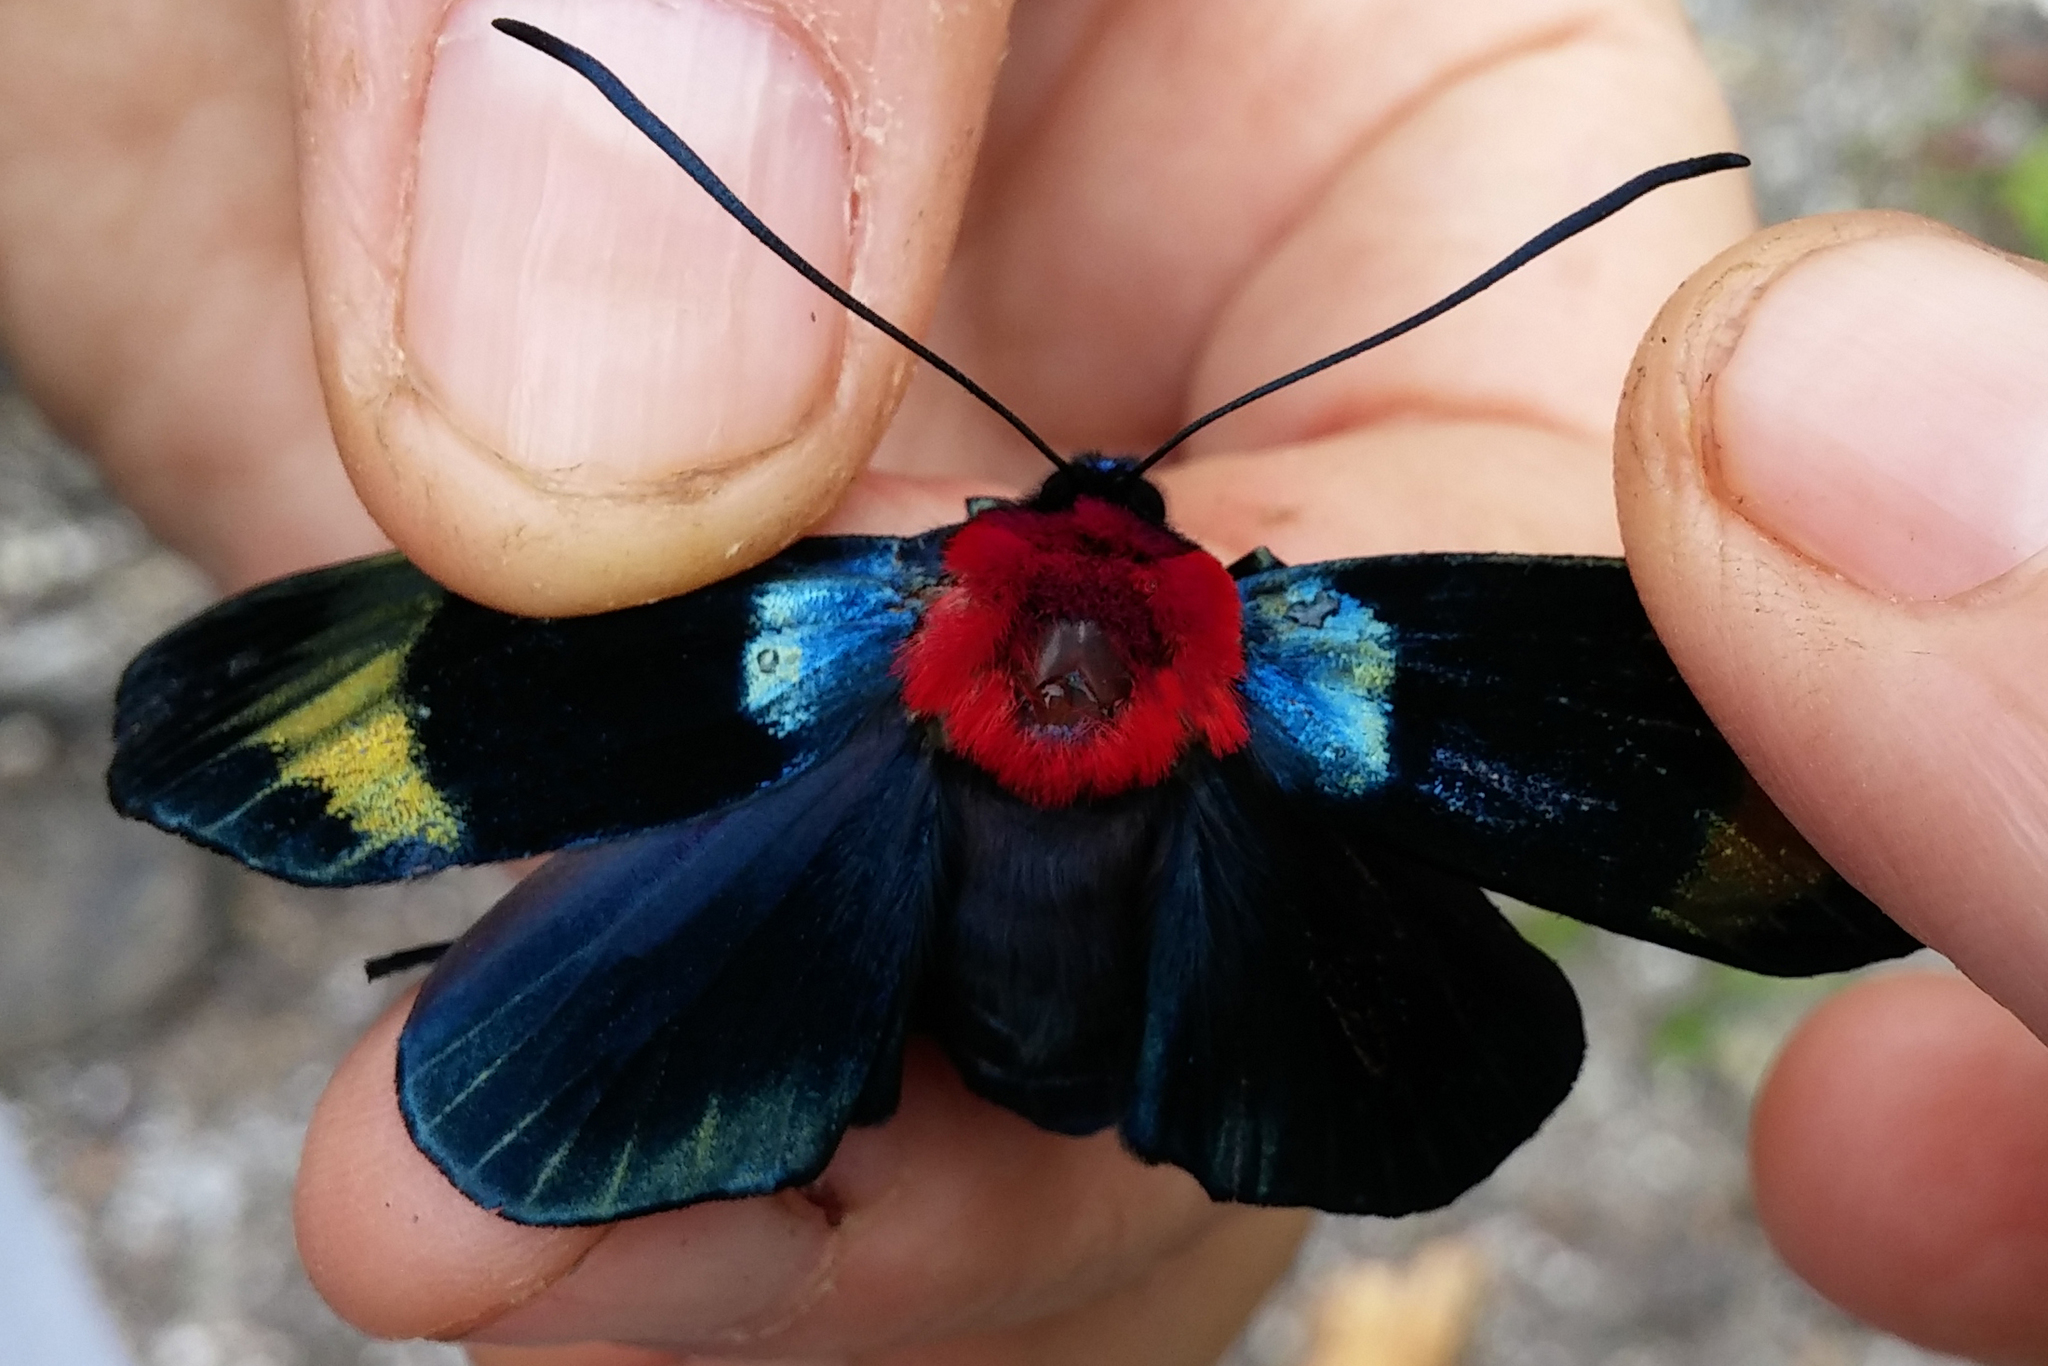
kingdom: Animalia
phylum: Arthropoda
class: Insecta
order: Lepidoptera
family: Noctuidae
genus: Eucocytia
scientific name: Eucocytia meeki
